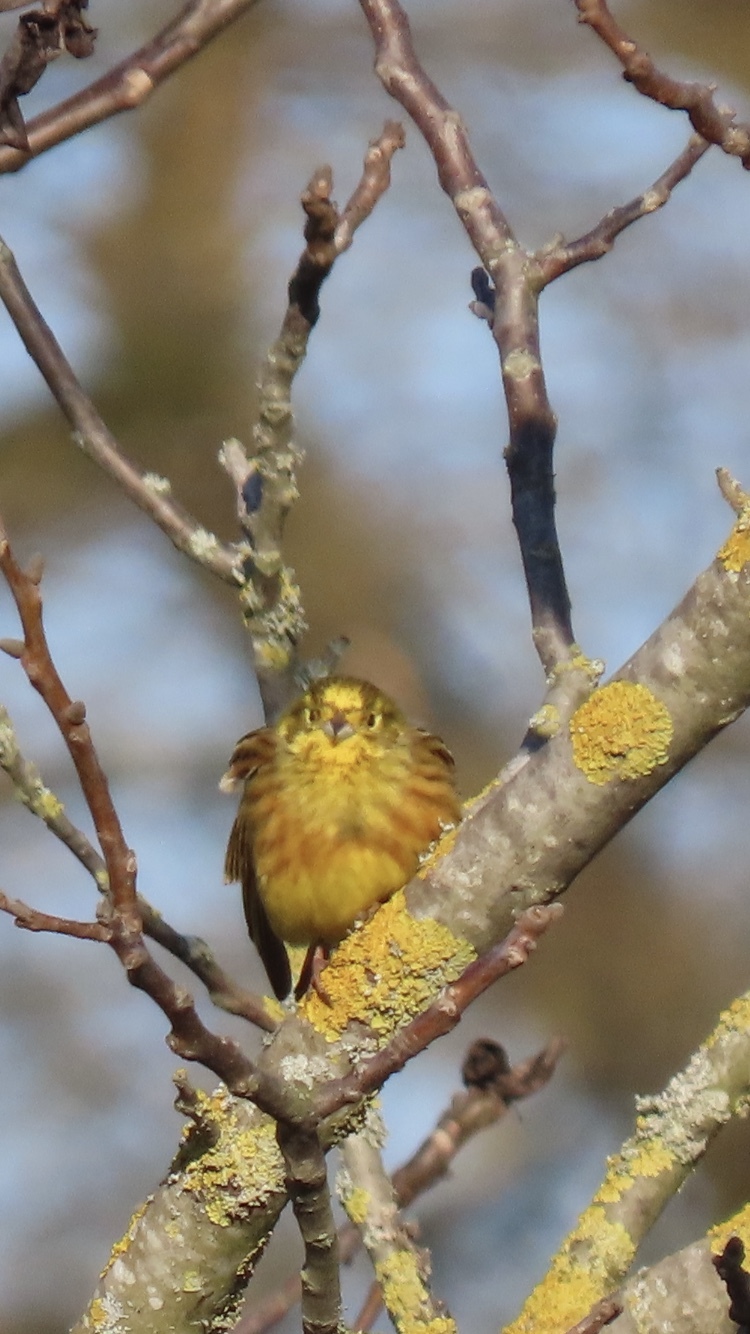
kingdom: Animalia
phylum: Chordata
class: Aves
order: Passeriformes
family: Emberizidae
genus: Emberiza
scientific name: Emberiza citrinella
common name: Yellowhammer
